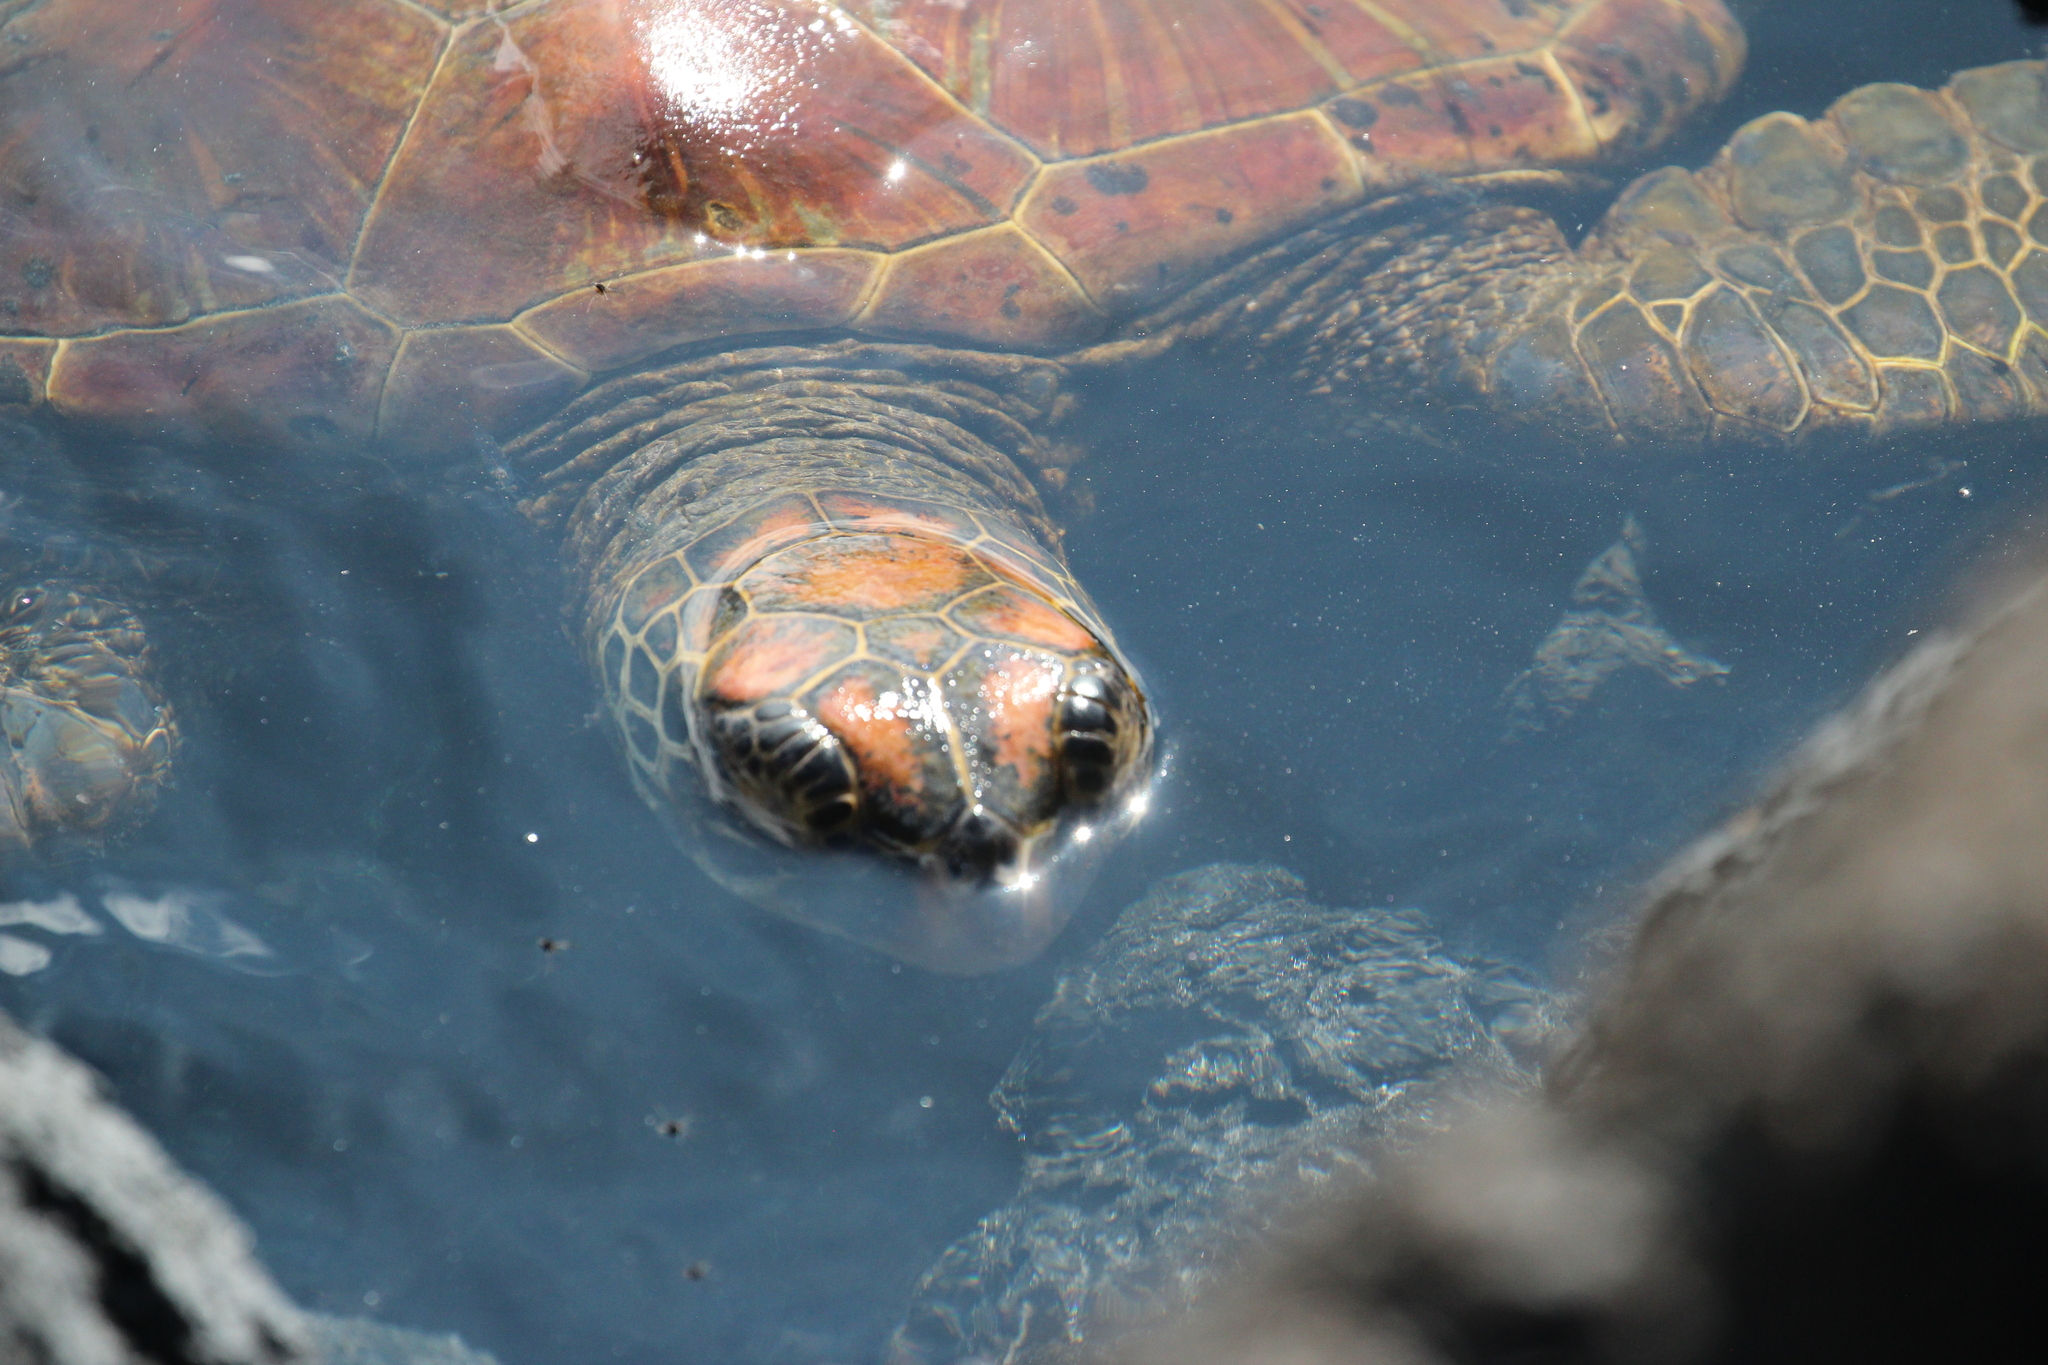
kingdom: Animalia
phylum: Chordata
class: Testudines
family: Cheloniidae
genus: Chelonia
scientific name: Chelonia mydas
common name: Green turtle
